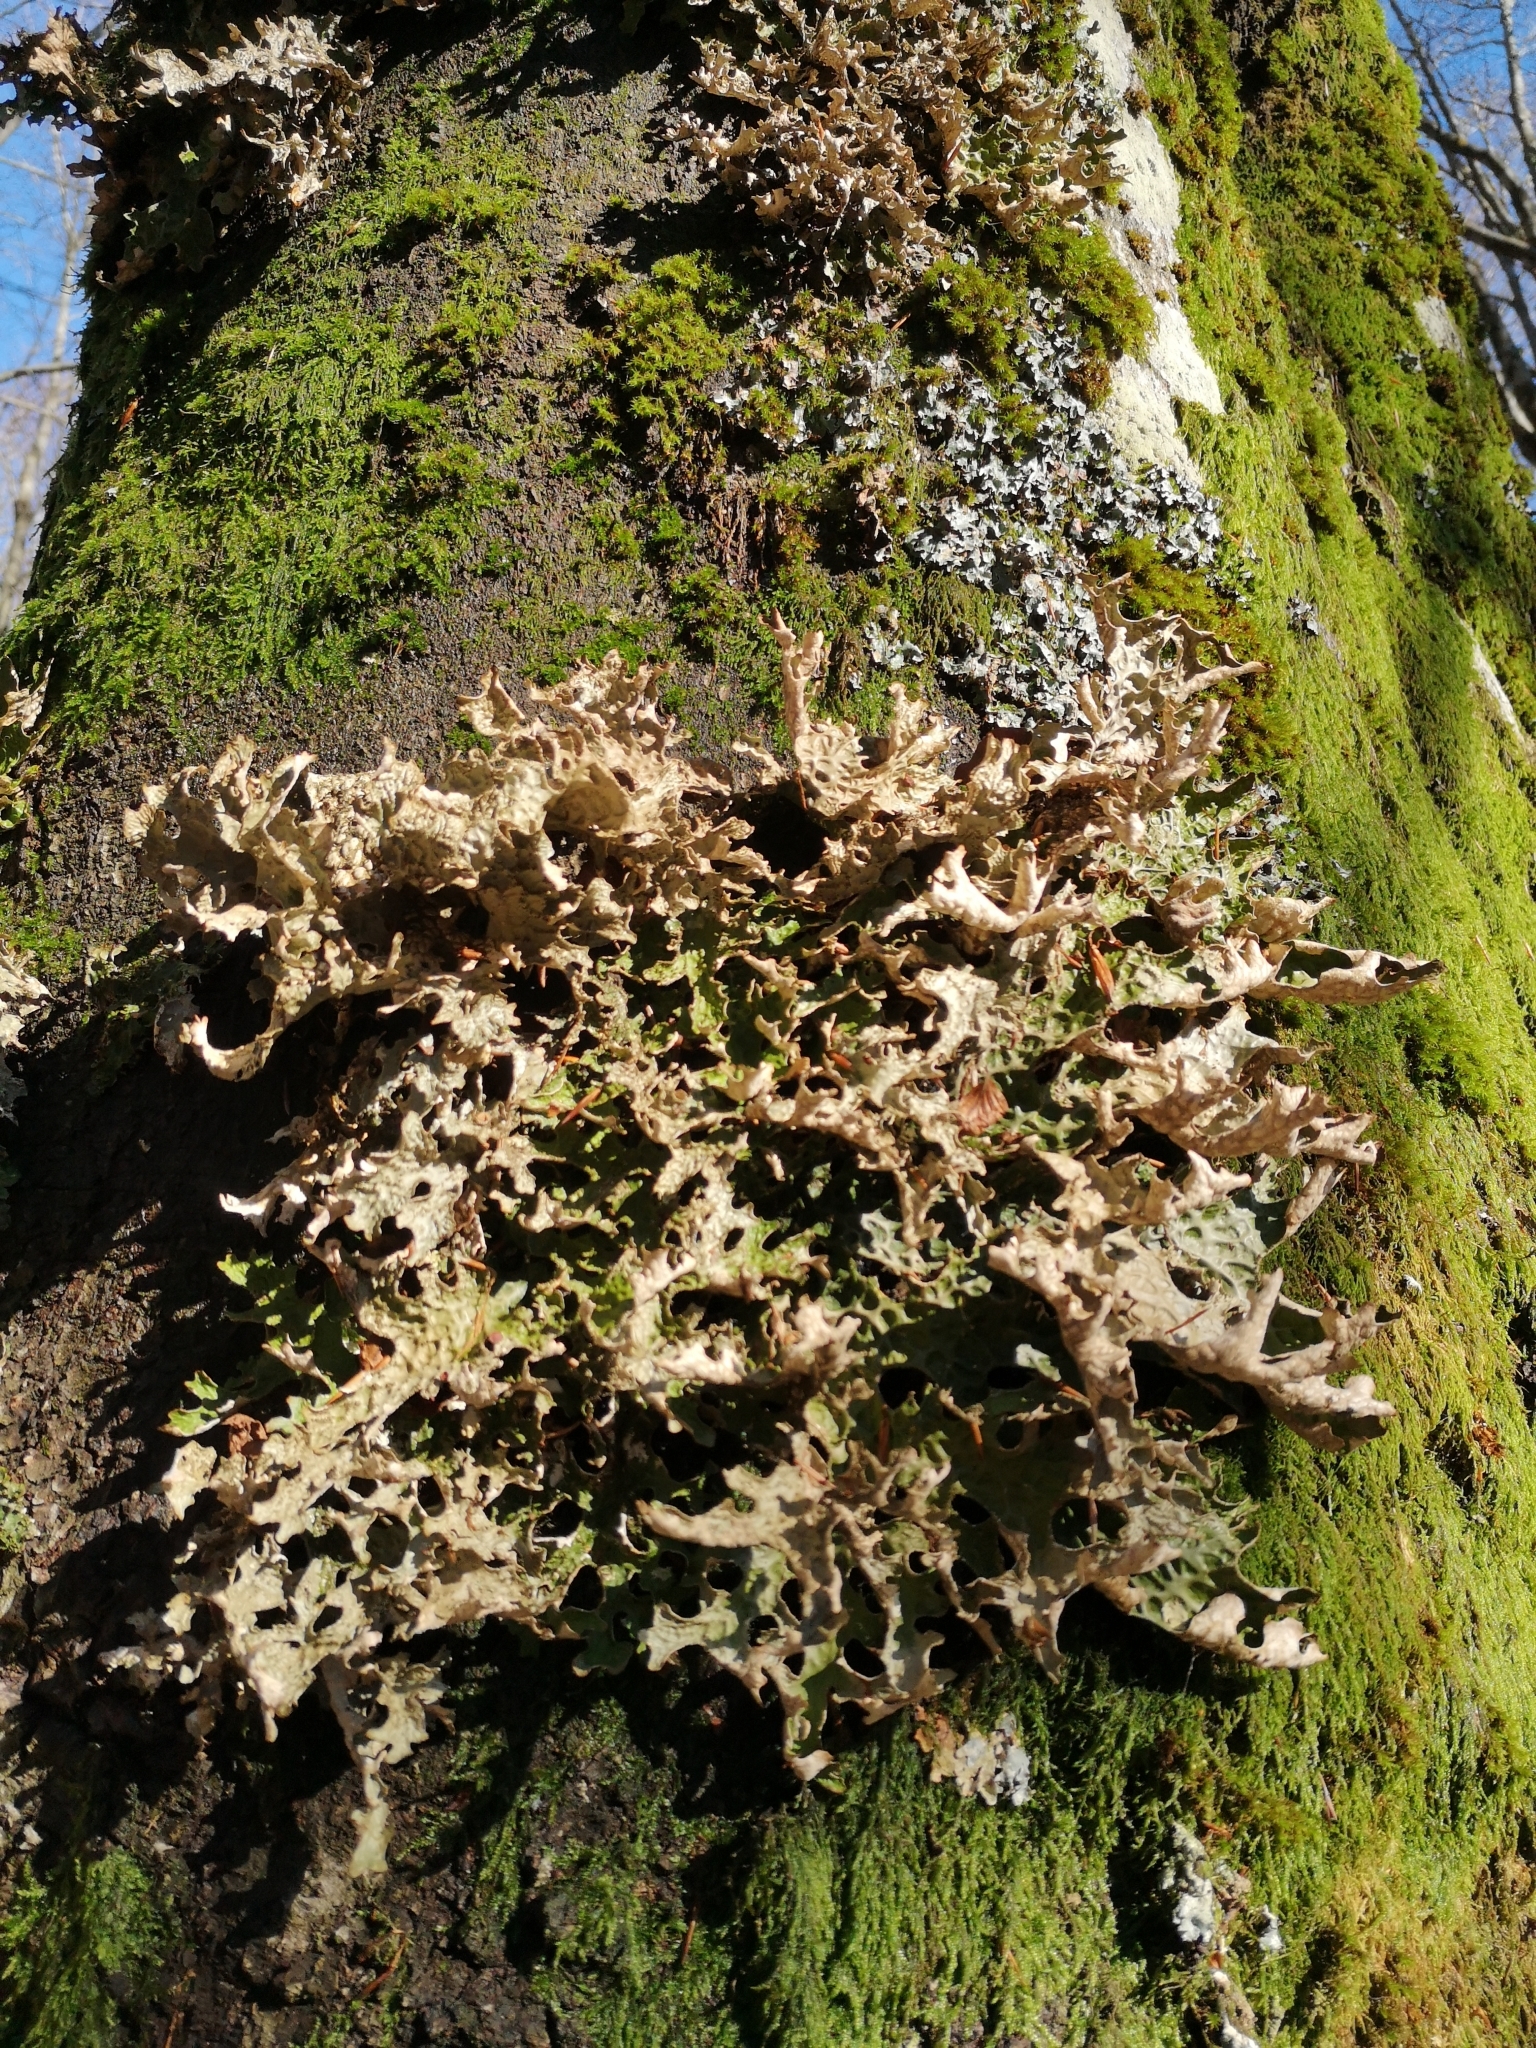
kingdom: Fungi
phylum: Ascomycota
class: Lecanoromycetes
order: Peltigerales
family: Lobariaceae
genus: Lobaria
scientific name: Lobaria pulmonaria
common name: Lungwort
